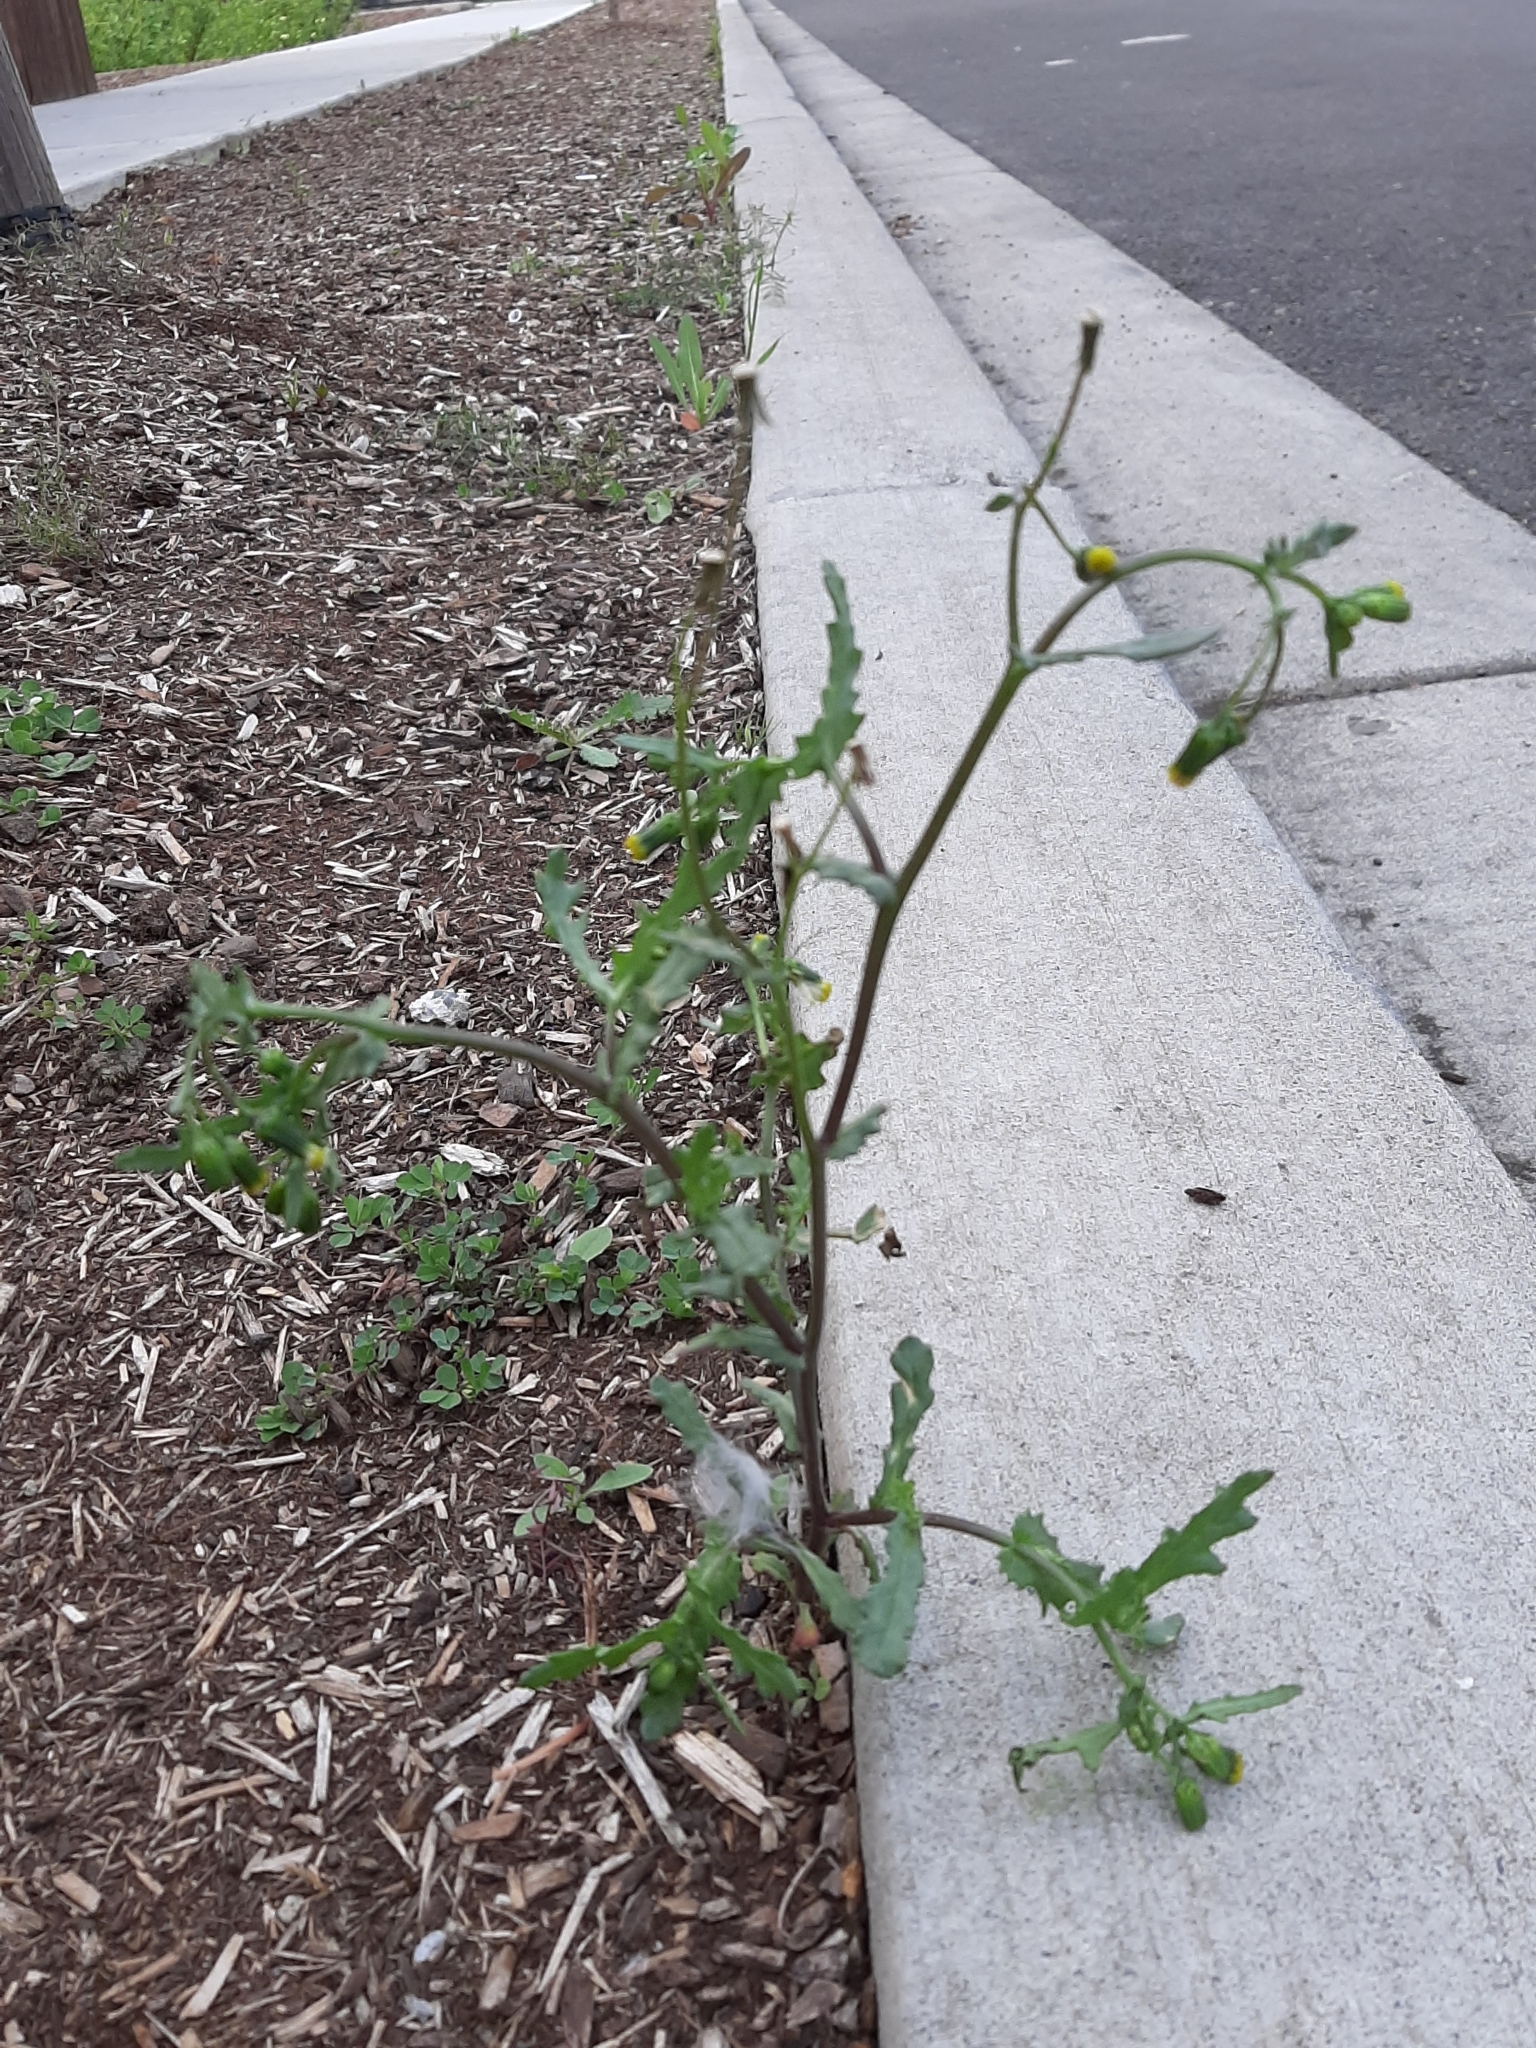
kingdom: Plantae
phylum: Tracheophyta
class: Magnoliopsida
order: Asterales
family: Asteraceae
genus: Senecio
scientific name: Senecio vulgaris
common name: Old-man-in-the-spring
